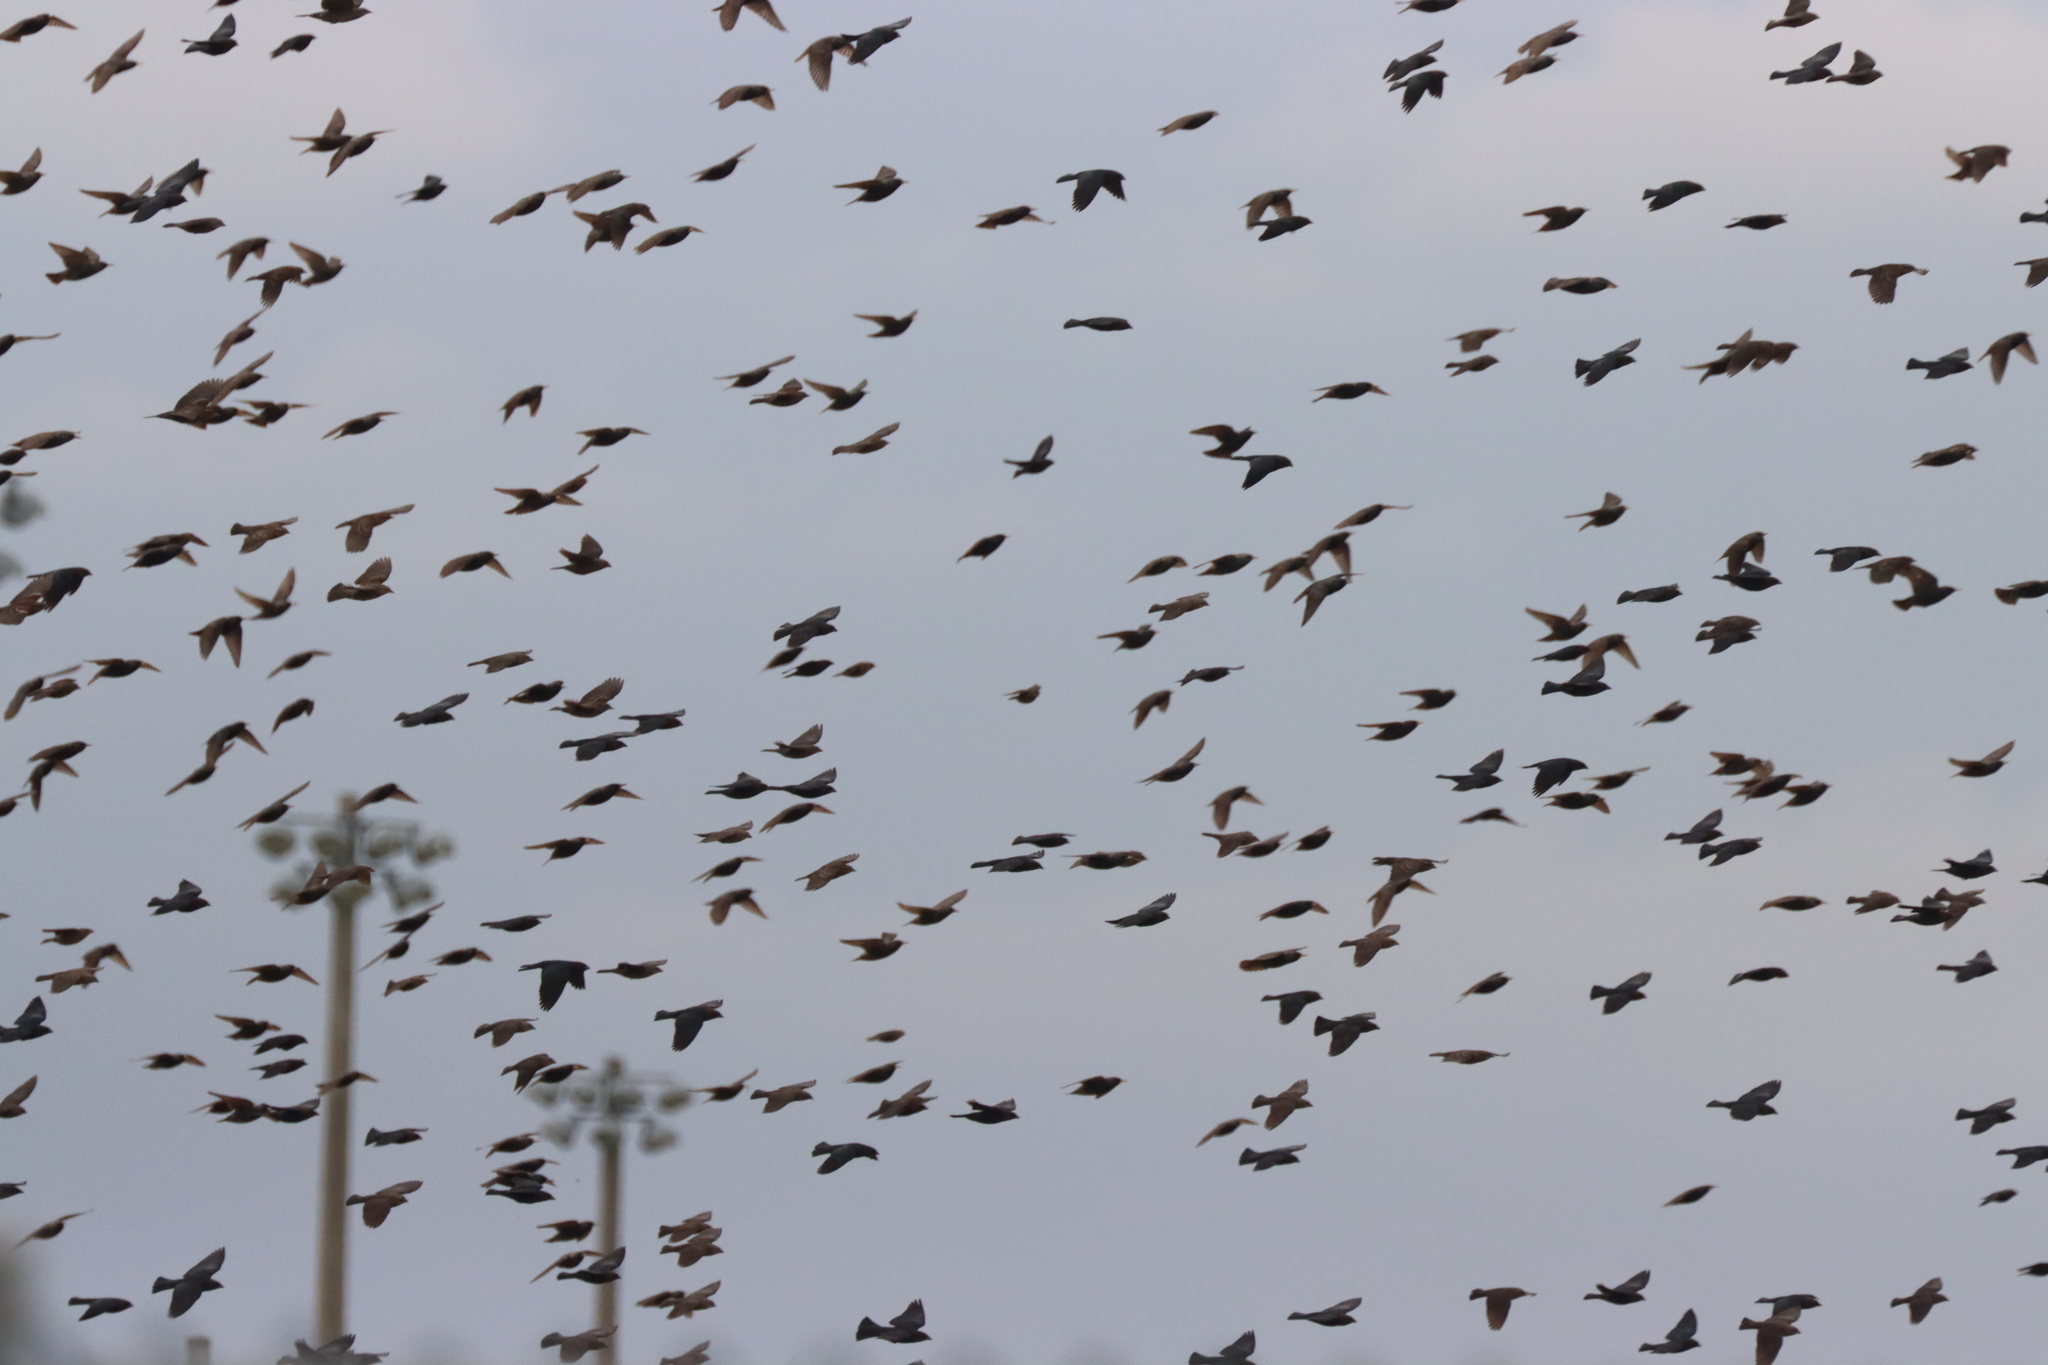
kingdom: Animalia
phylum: Chordata
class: Aves
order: Passeriformes
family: Sturnidae
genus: Sturnus
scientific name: Sturnus vulgaris
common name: Common starling
